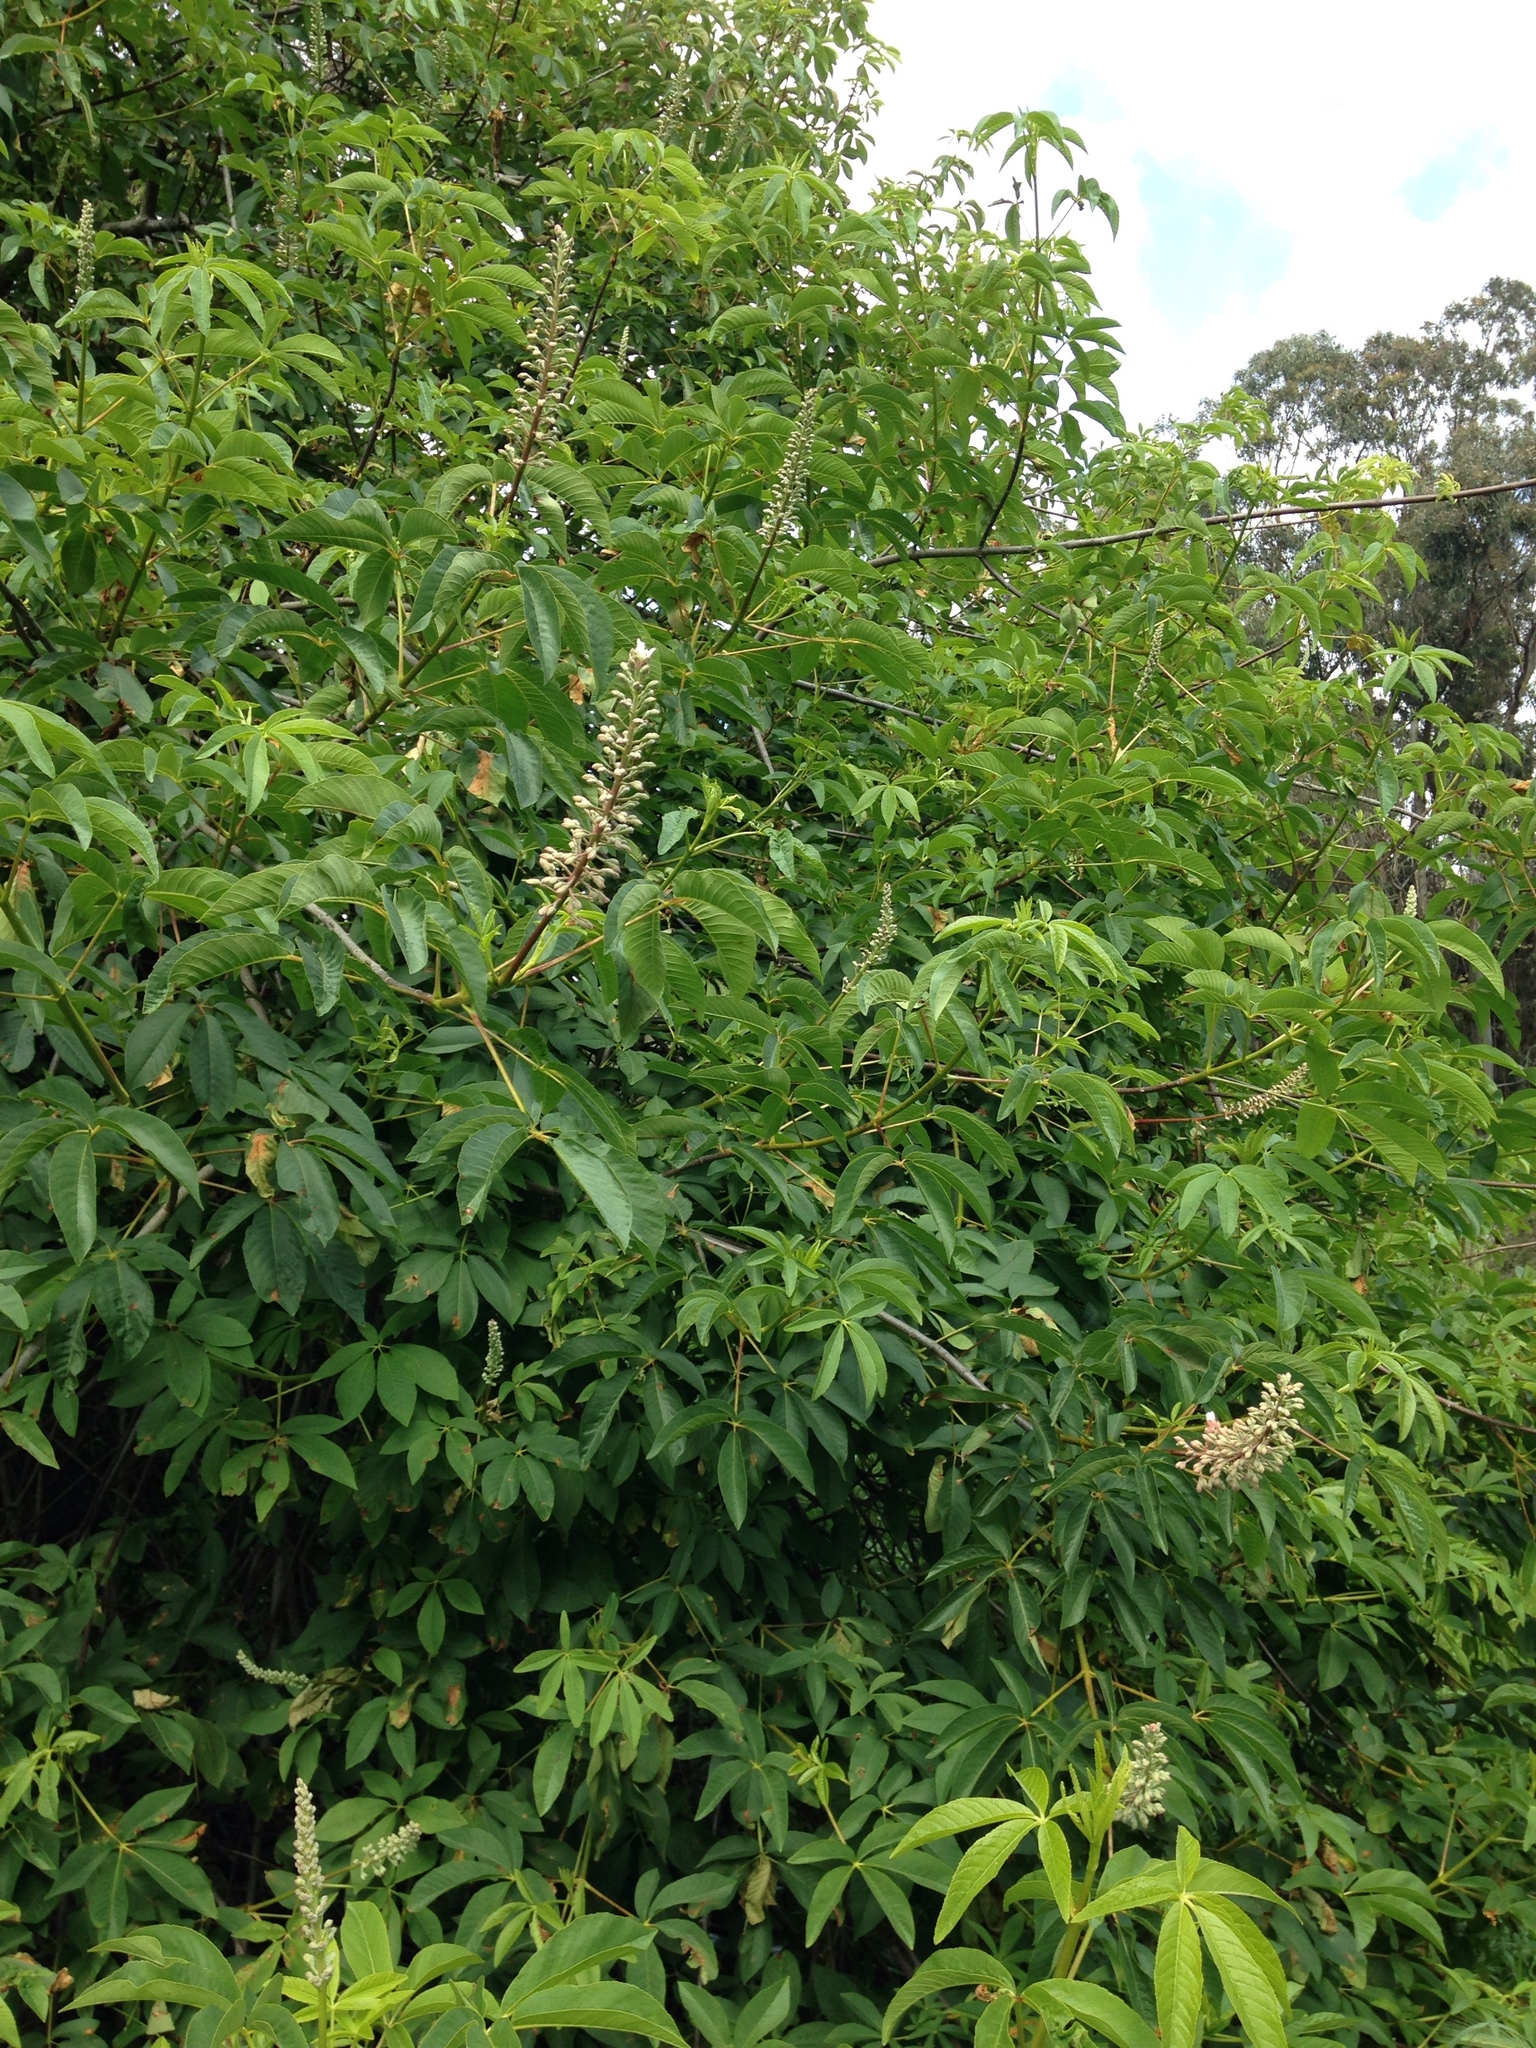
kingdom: Plantae
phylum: Tracheophyta
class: Magnoliopsida
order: Sapindales
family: Sapindaceae
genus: Aesculus
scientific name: Aesculus californica
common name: California buckeye
